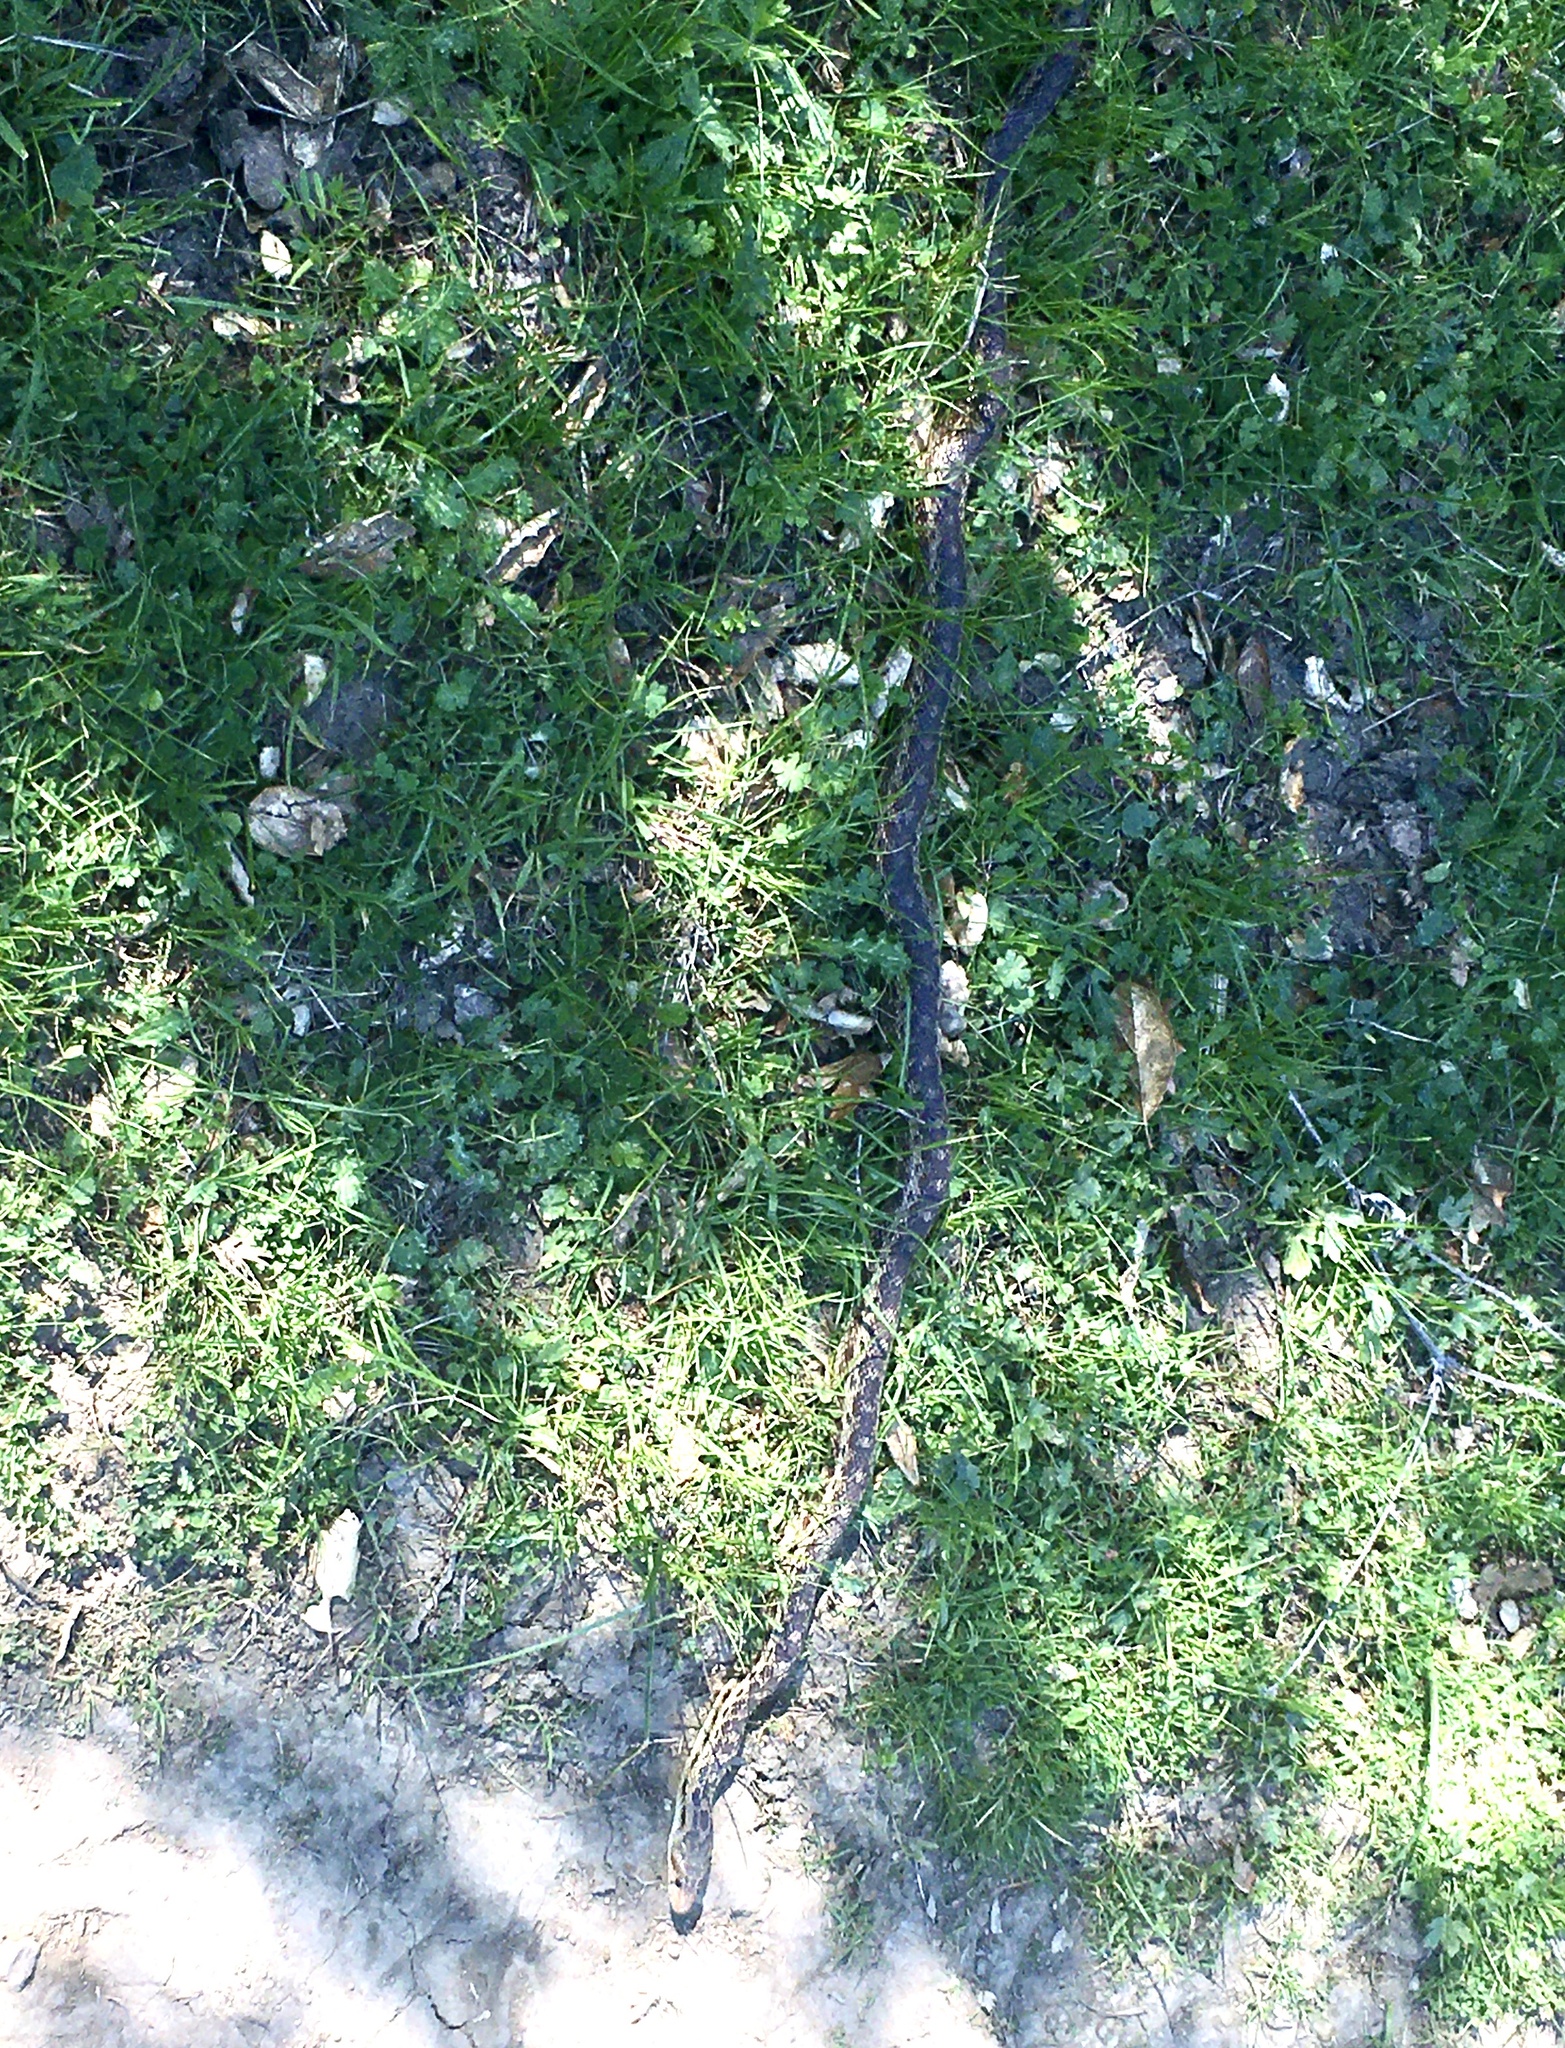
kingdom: Animalia
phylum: Chordata
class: Squamata
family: Colubridae
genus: Pituophis
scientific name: Pituophis catenifer
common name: Gopher snake
